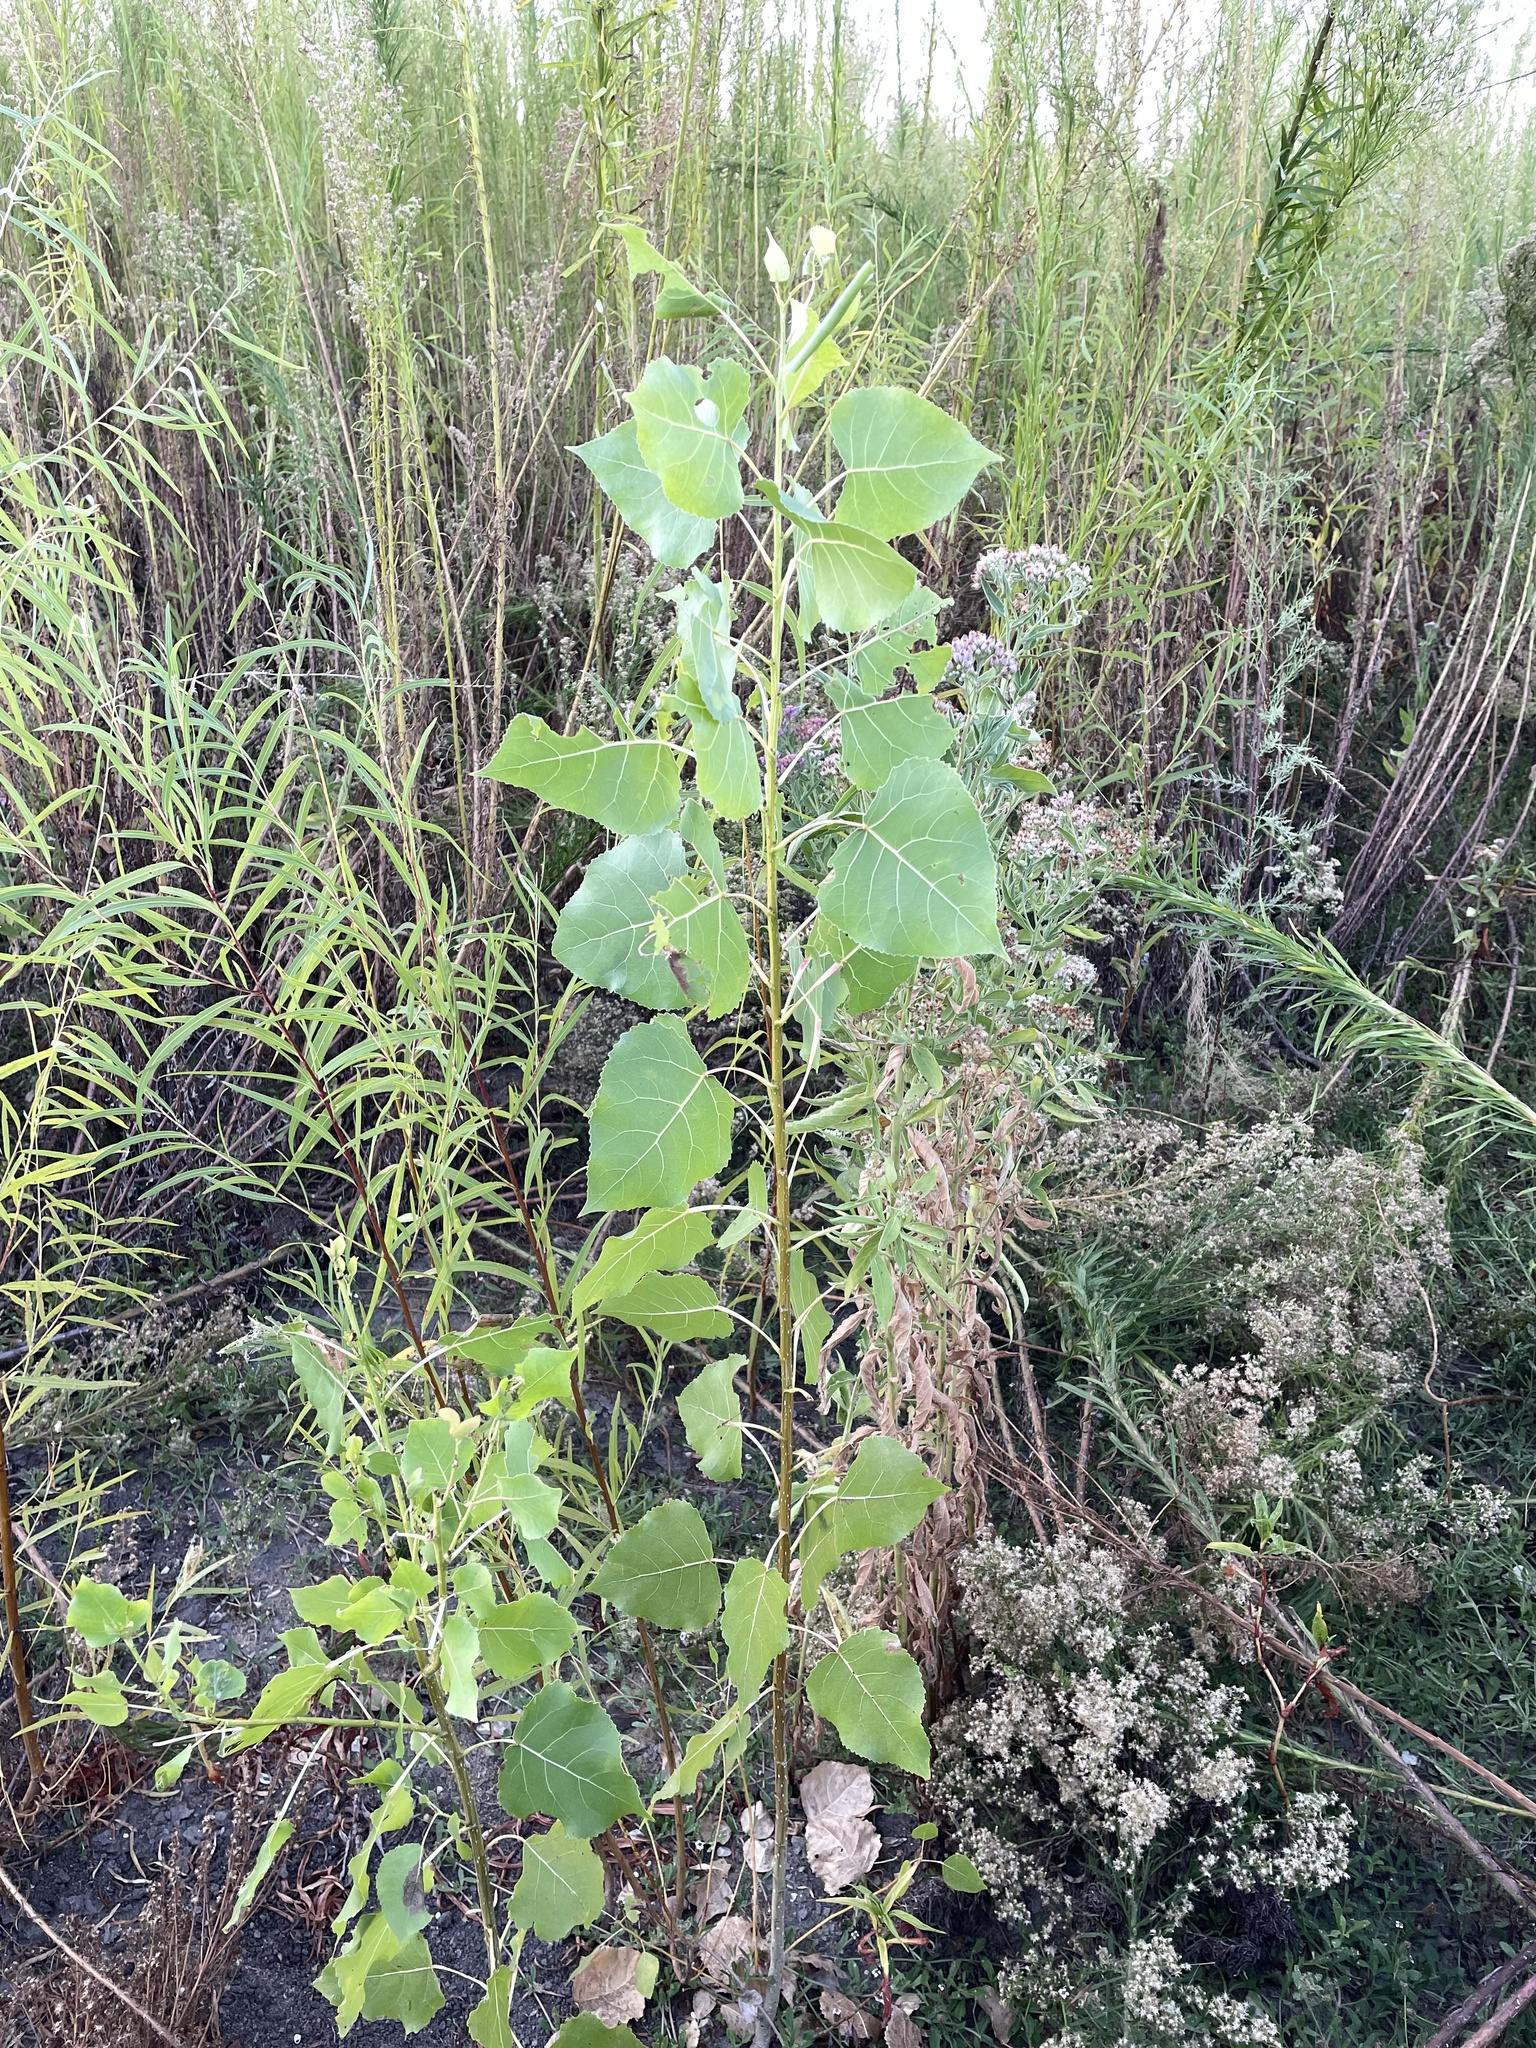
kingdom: Plantae
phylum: Tracheophyta
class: Magnoliopsida
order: Malpighiales
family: Salicaceae
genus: Populus
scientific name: Populus deltoides
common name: Eastern cottonwood
